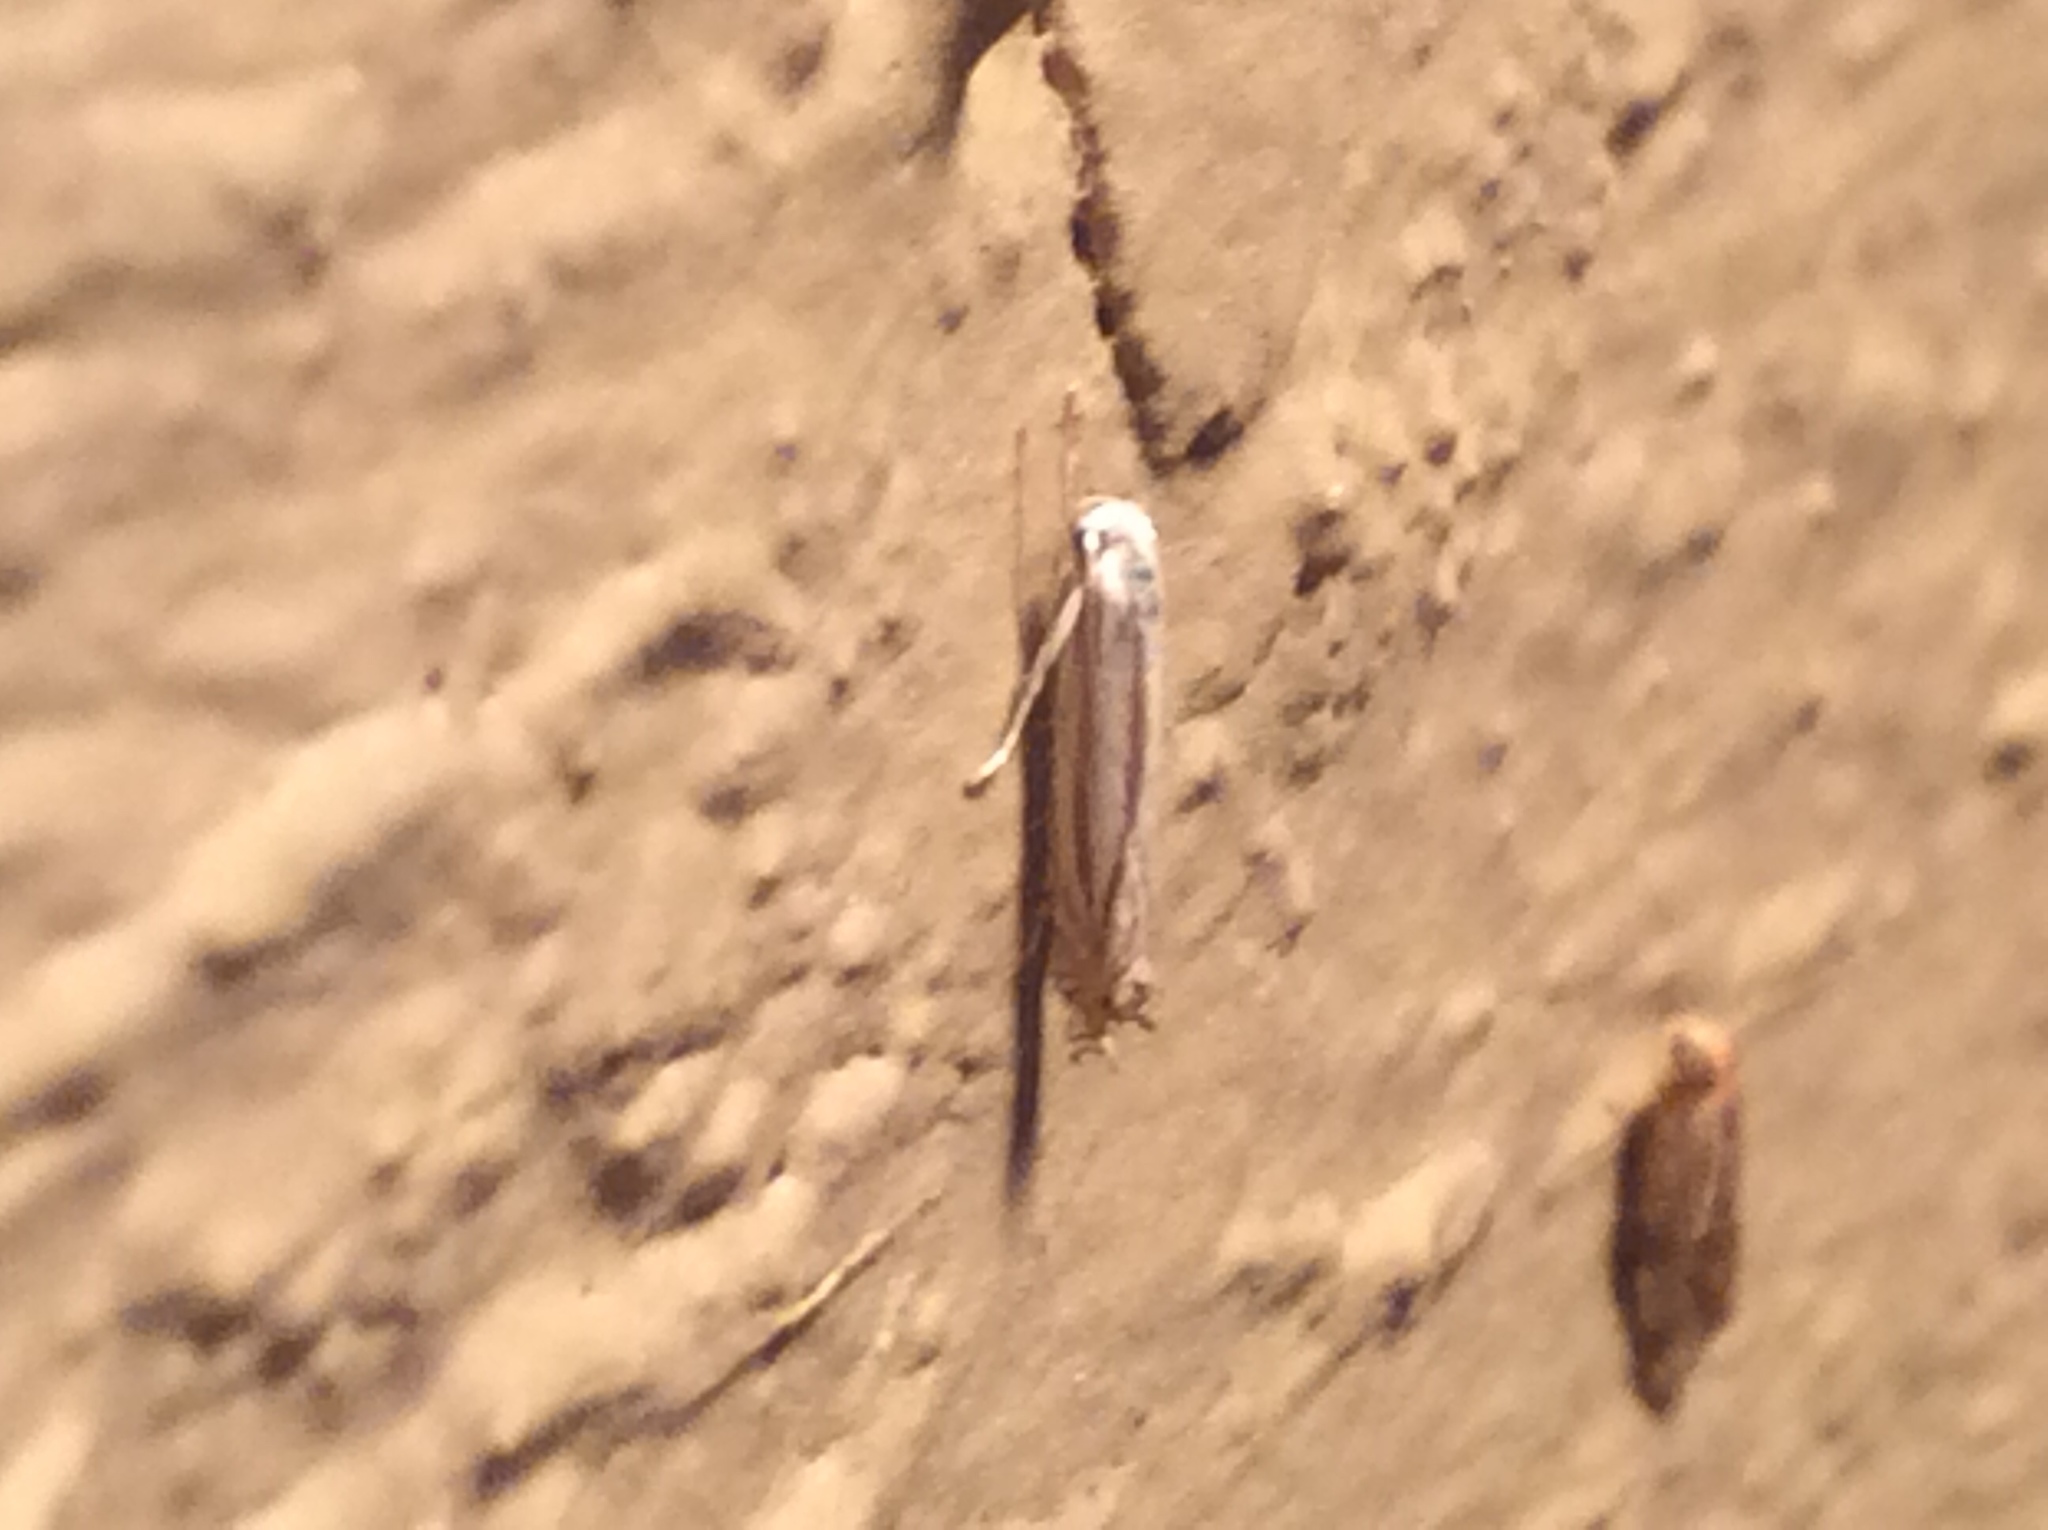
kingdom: Animalia
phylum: Arthropoda
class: Insecta
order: Lepidoptera
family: Gelechiidae
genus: Polyhymno
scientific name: Polyhymno luteostrigella
